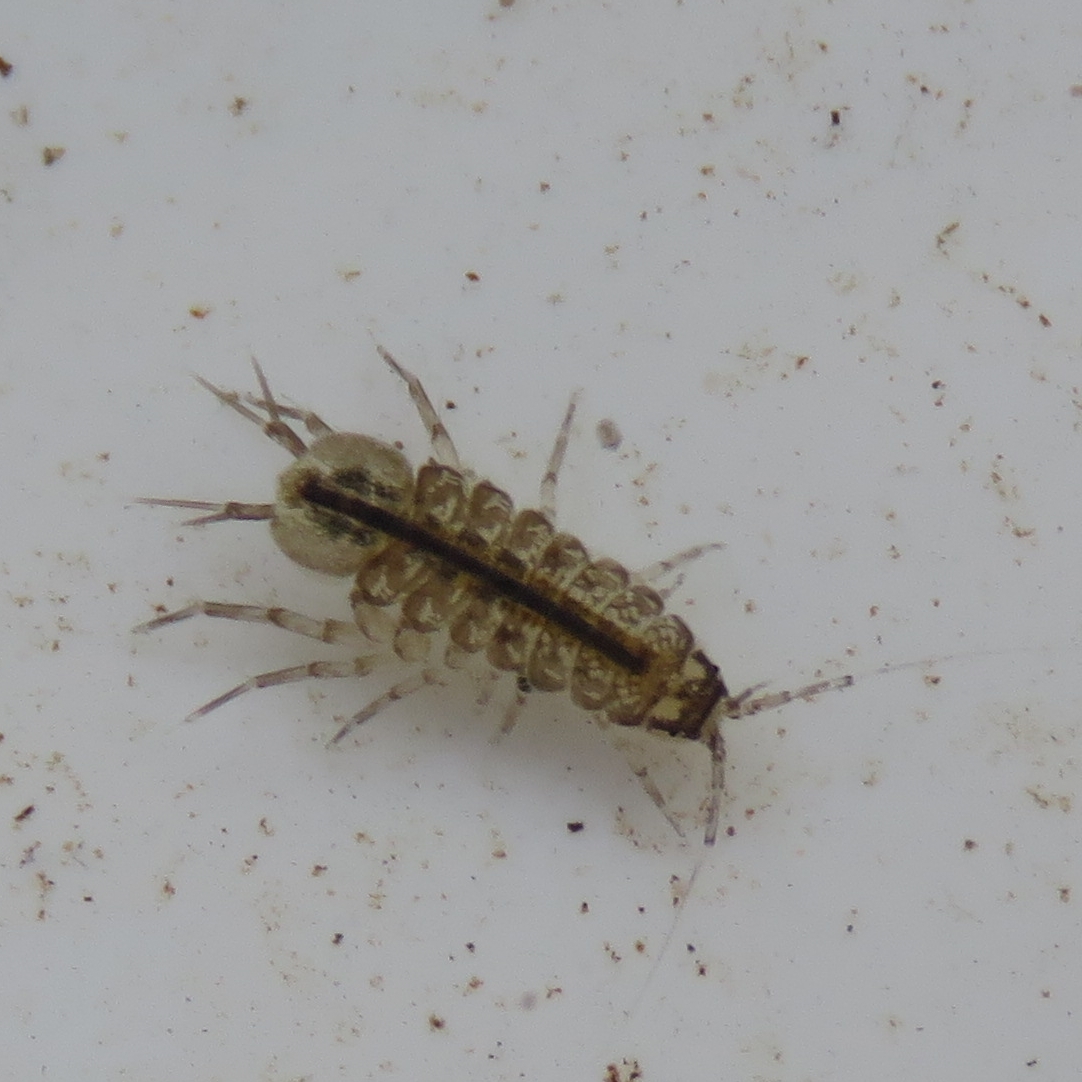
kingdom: Animalia
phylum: Arthropoda
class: Malacostraca
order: Isopoda
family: Asellidae
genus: Asellus
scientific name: Asellus aquaticus
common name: Water hog lice/slaters
